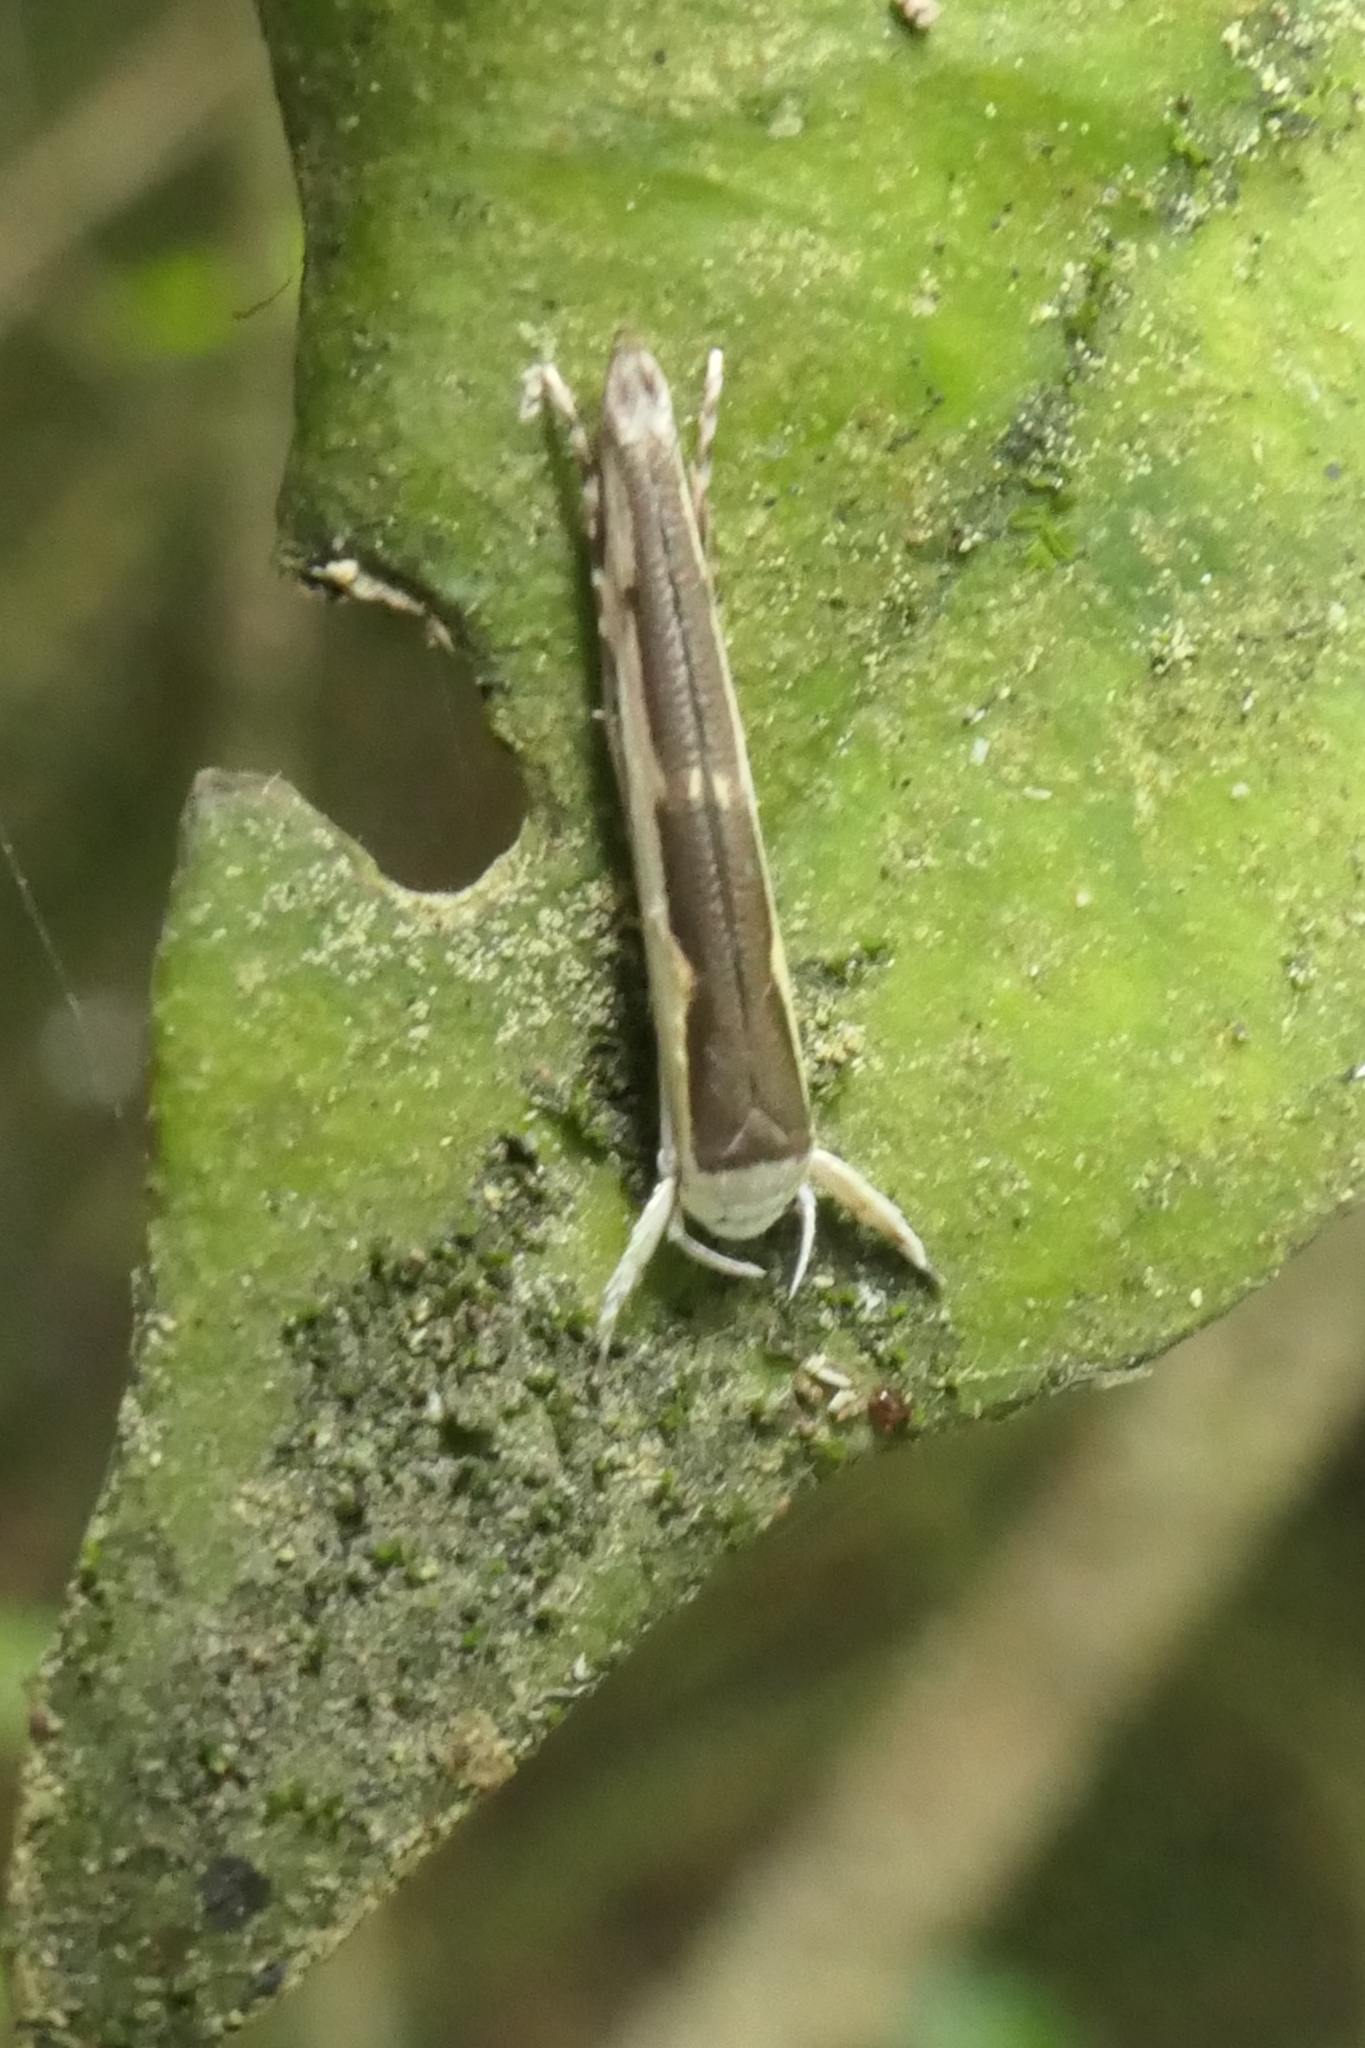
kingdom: Animalia
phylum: Arthropoda
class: Insecta
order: Lepidoptera
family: Roeslerstammiidae
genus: Vanicela
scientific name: Vanicela disjunctella
